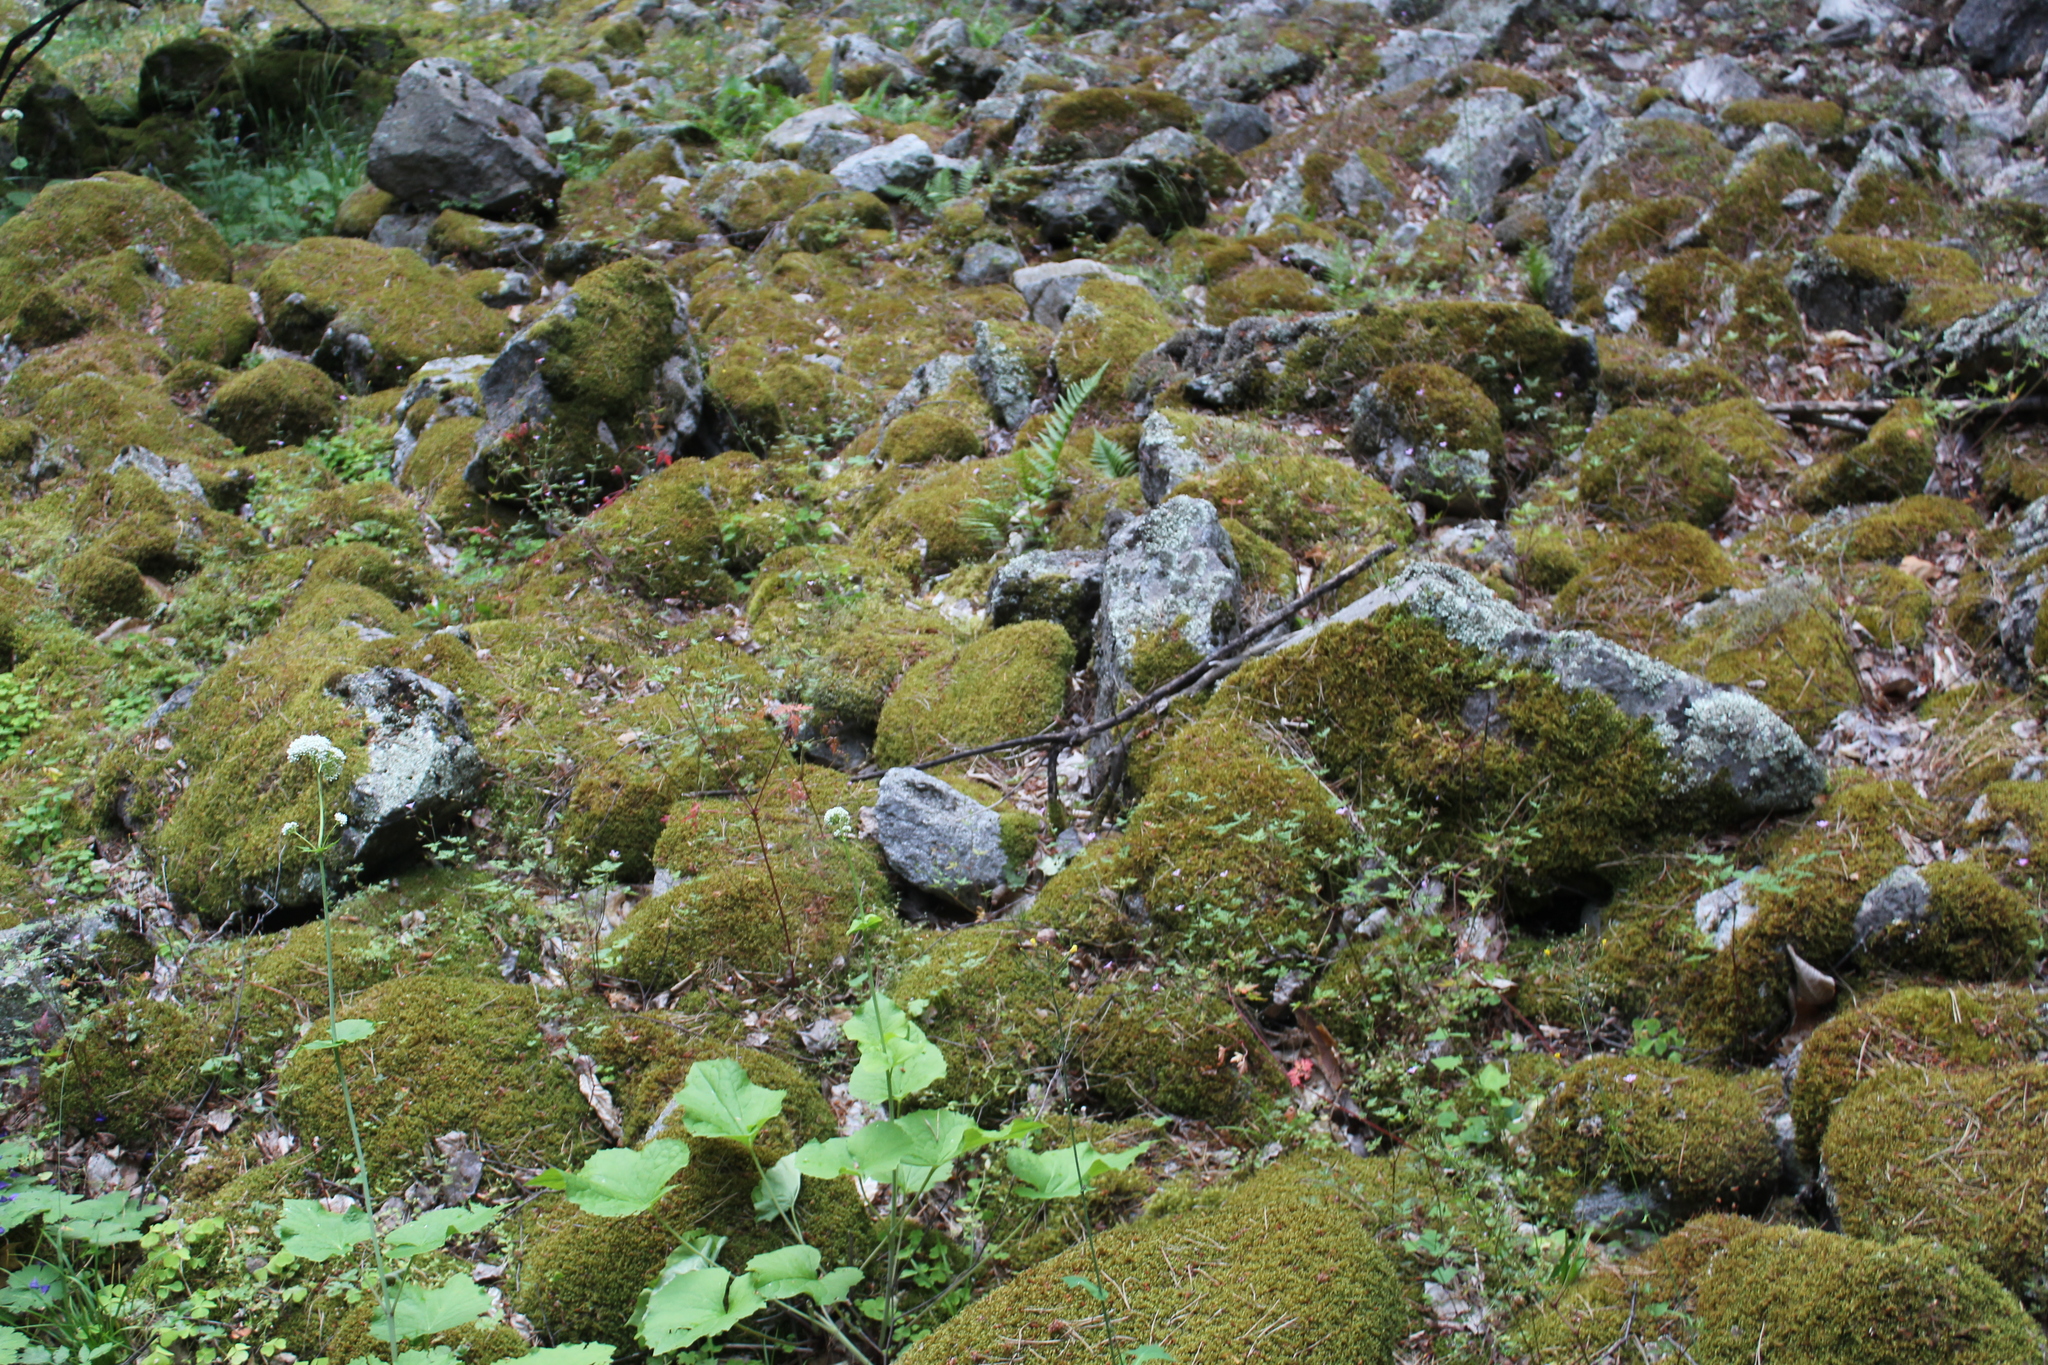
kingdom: Plantae
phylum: Tracheophyta
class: Magnoliopsida
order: Dipsacales
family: Caprifoliaceae
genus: Valeriana
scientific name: Valeriana alliariifolia
